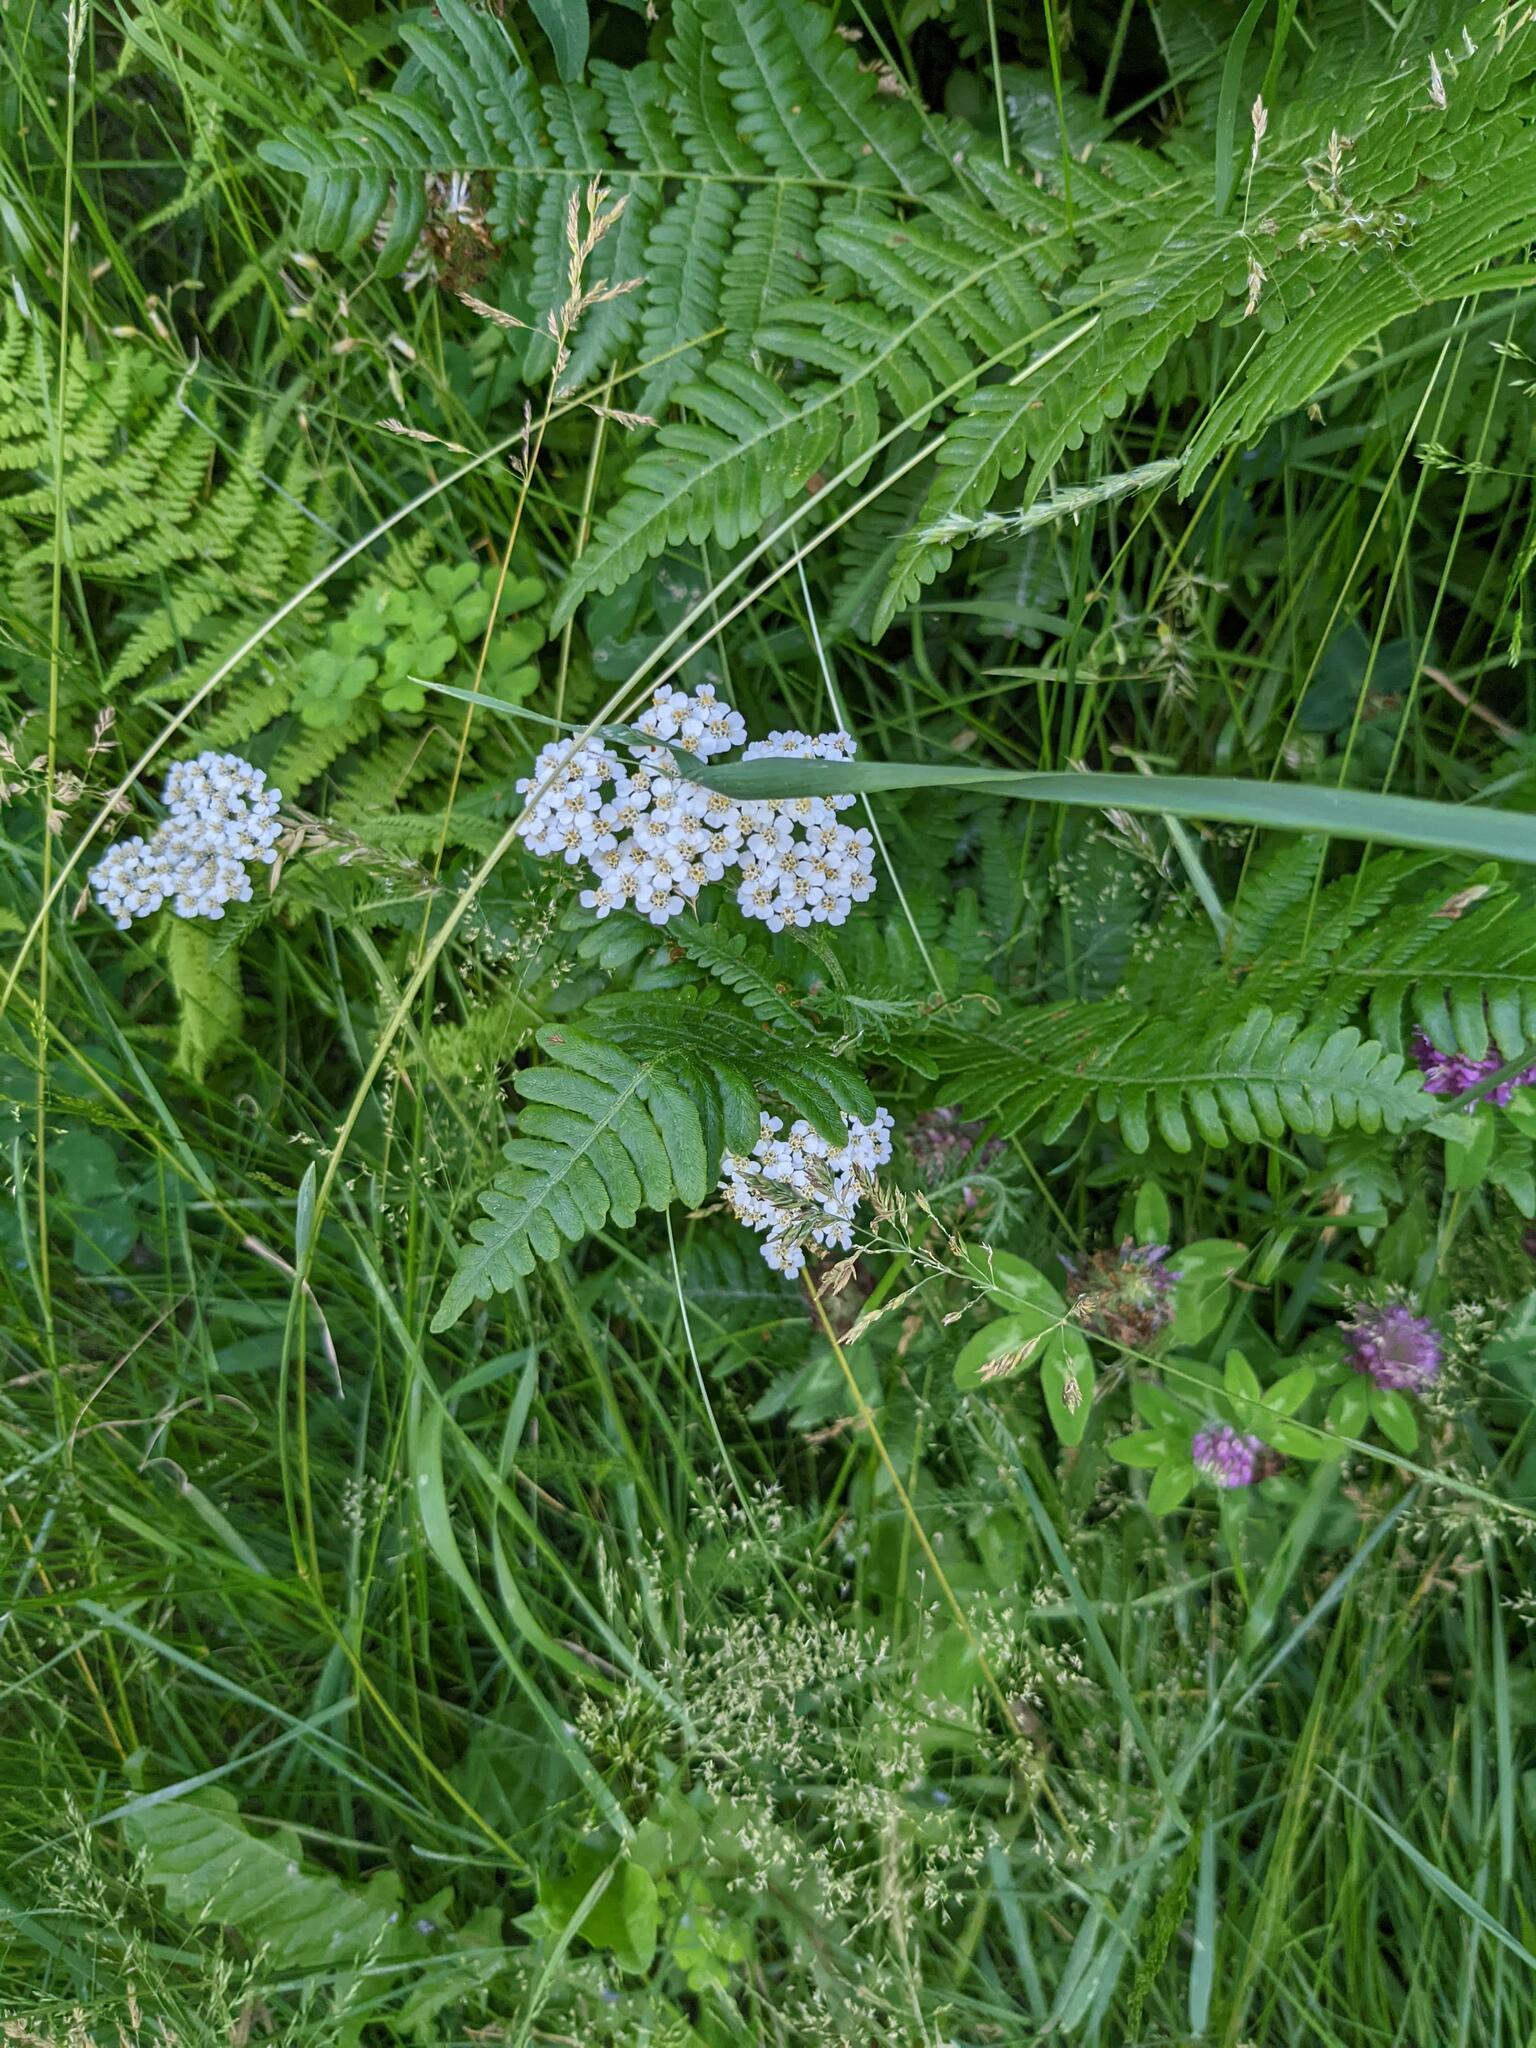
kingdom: Plantae
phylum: Tracheophyta
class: Magnoliopsida
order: Asterales
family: Asteraceae
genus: Achillea
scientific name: Achillea millefolium
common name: Yarrow
